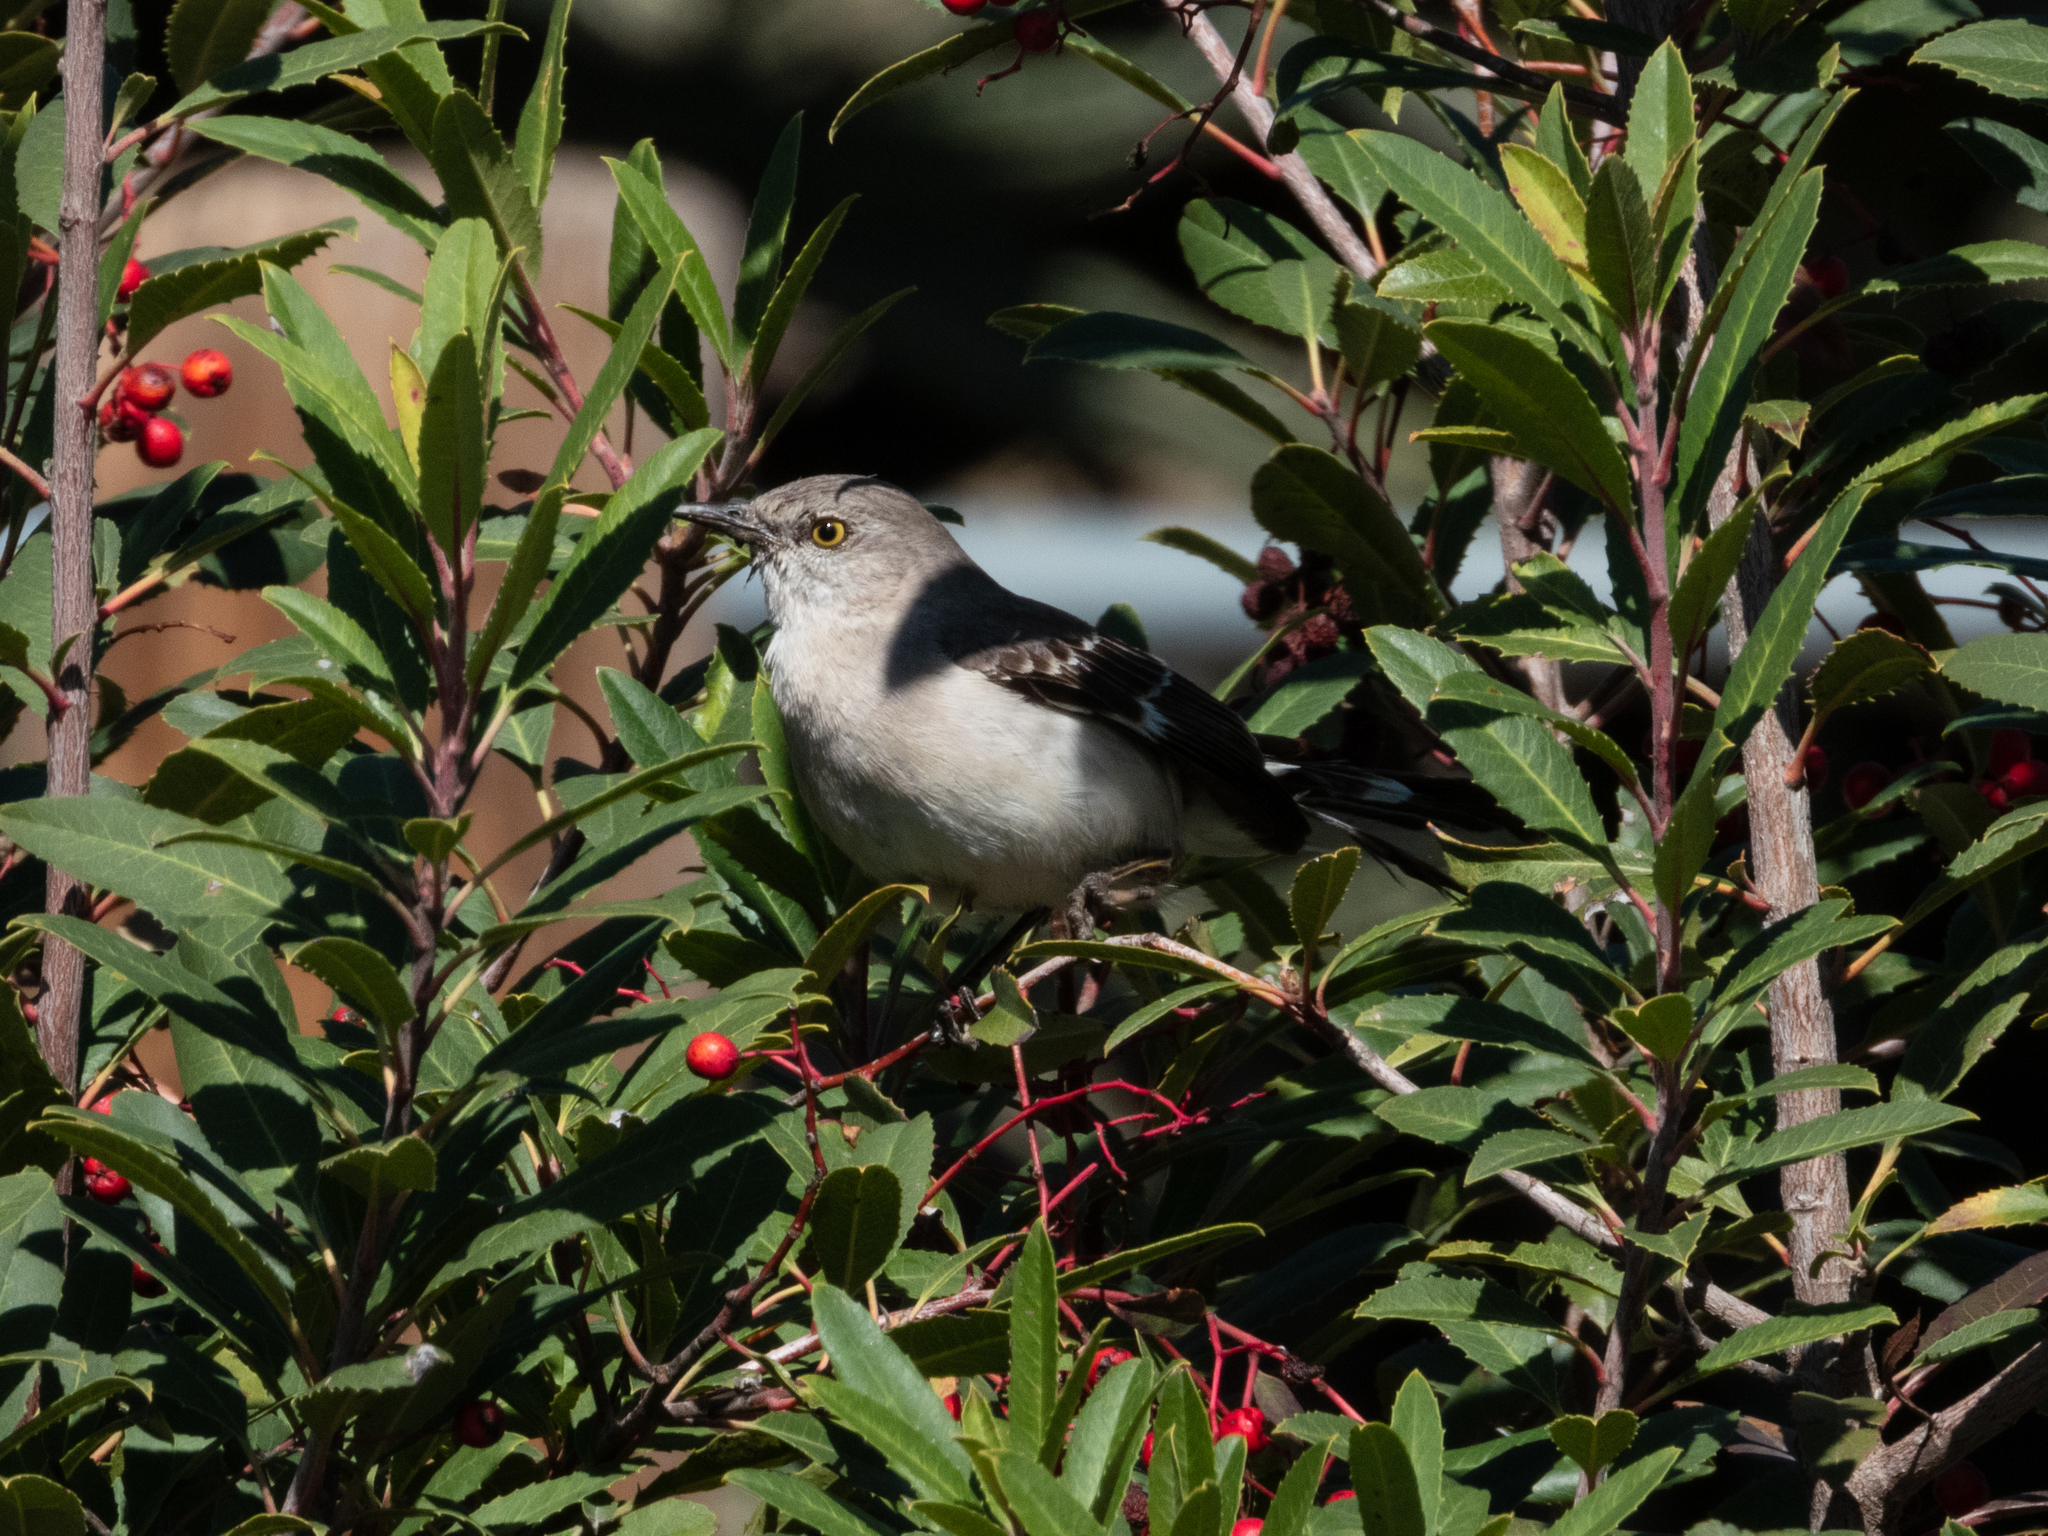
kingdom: Animalia
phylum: Chordata
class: Aves
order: Passeriformes
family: Mimidae
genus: Mimus
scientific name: Mimus polyglottos
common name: Northern mockingbird
